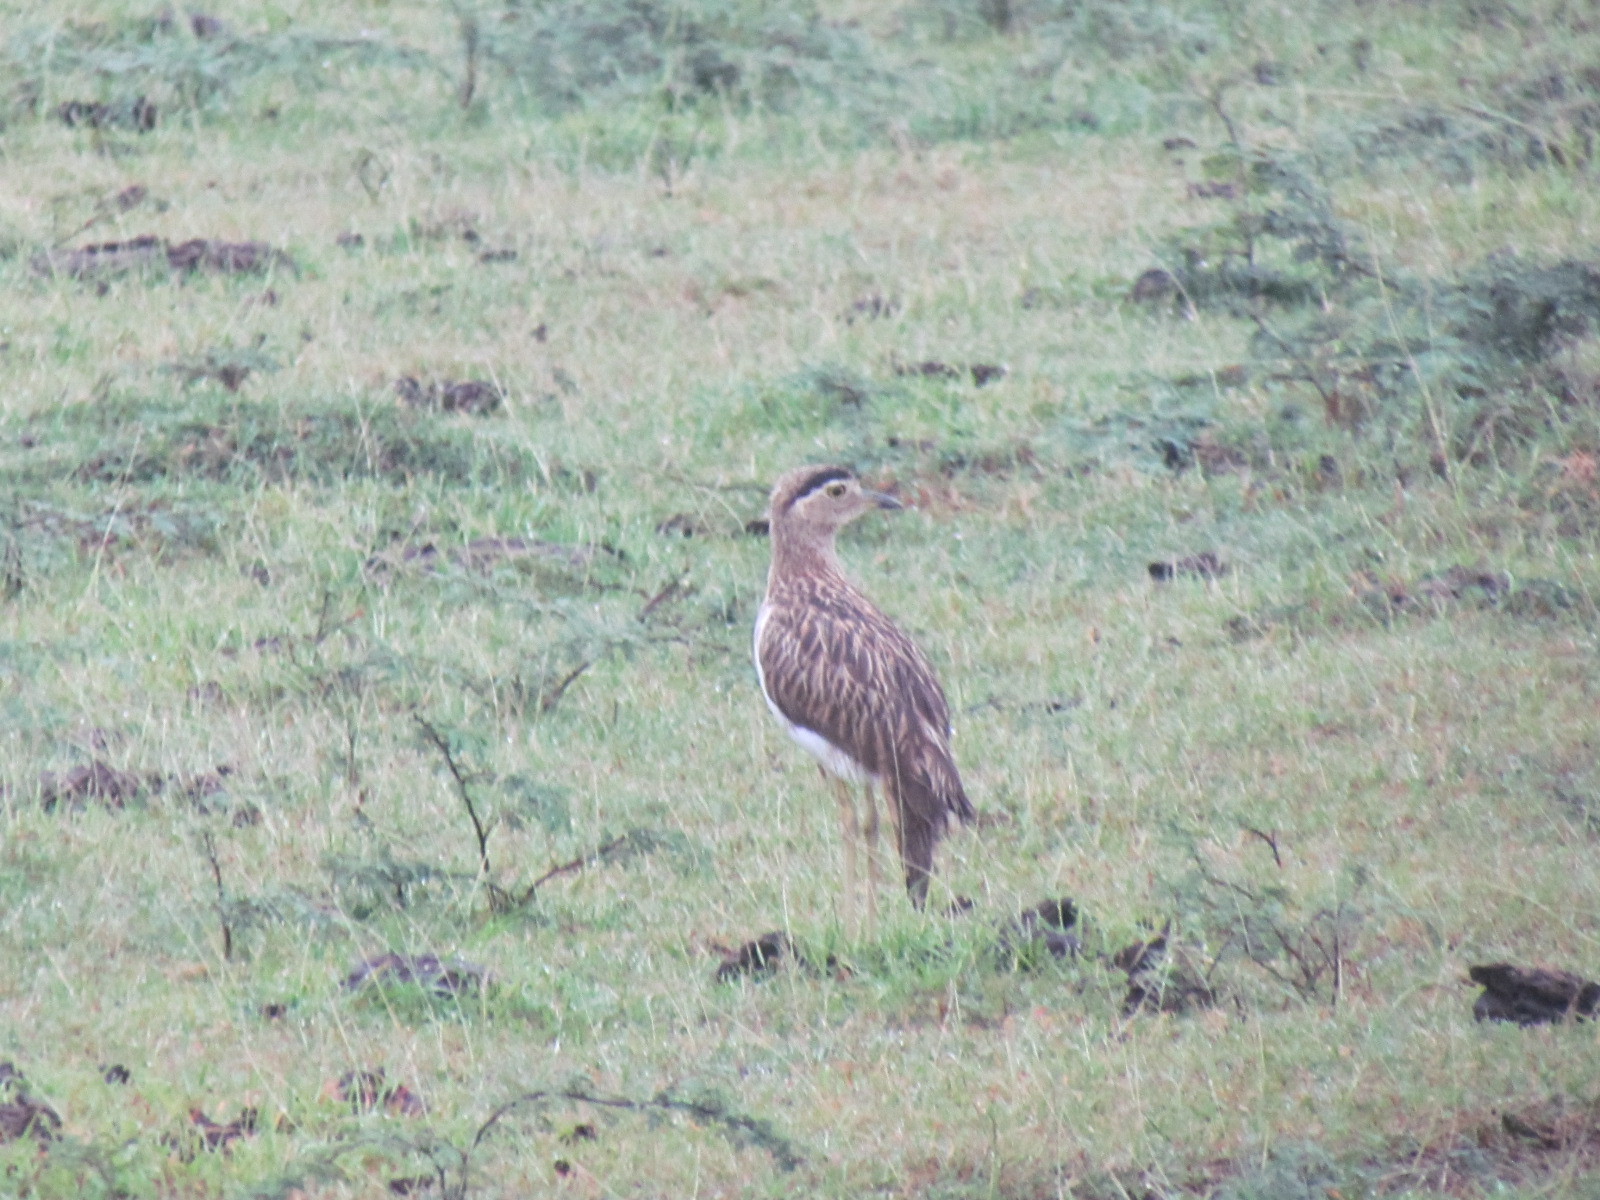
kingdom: Animalia
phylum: Chordata
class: Aves
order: Charadriiformes
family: Burhinidae
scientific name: Burhinidae
